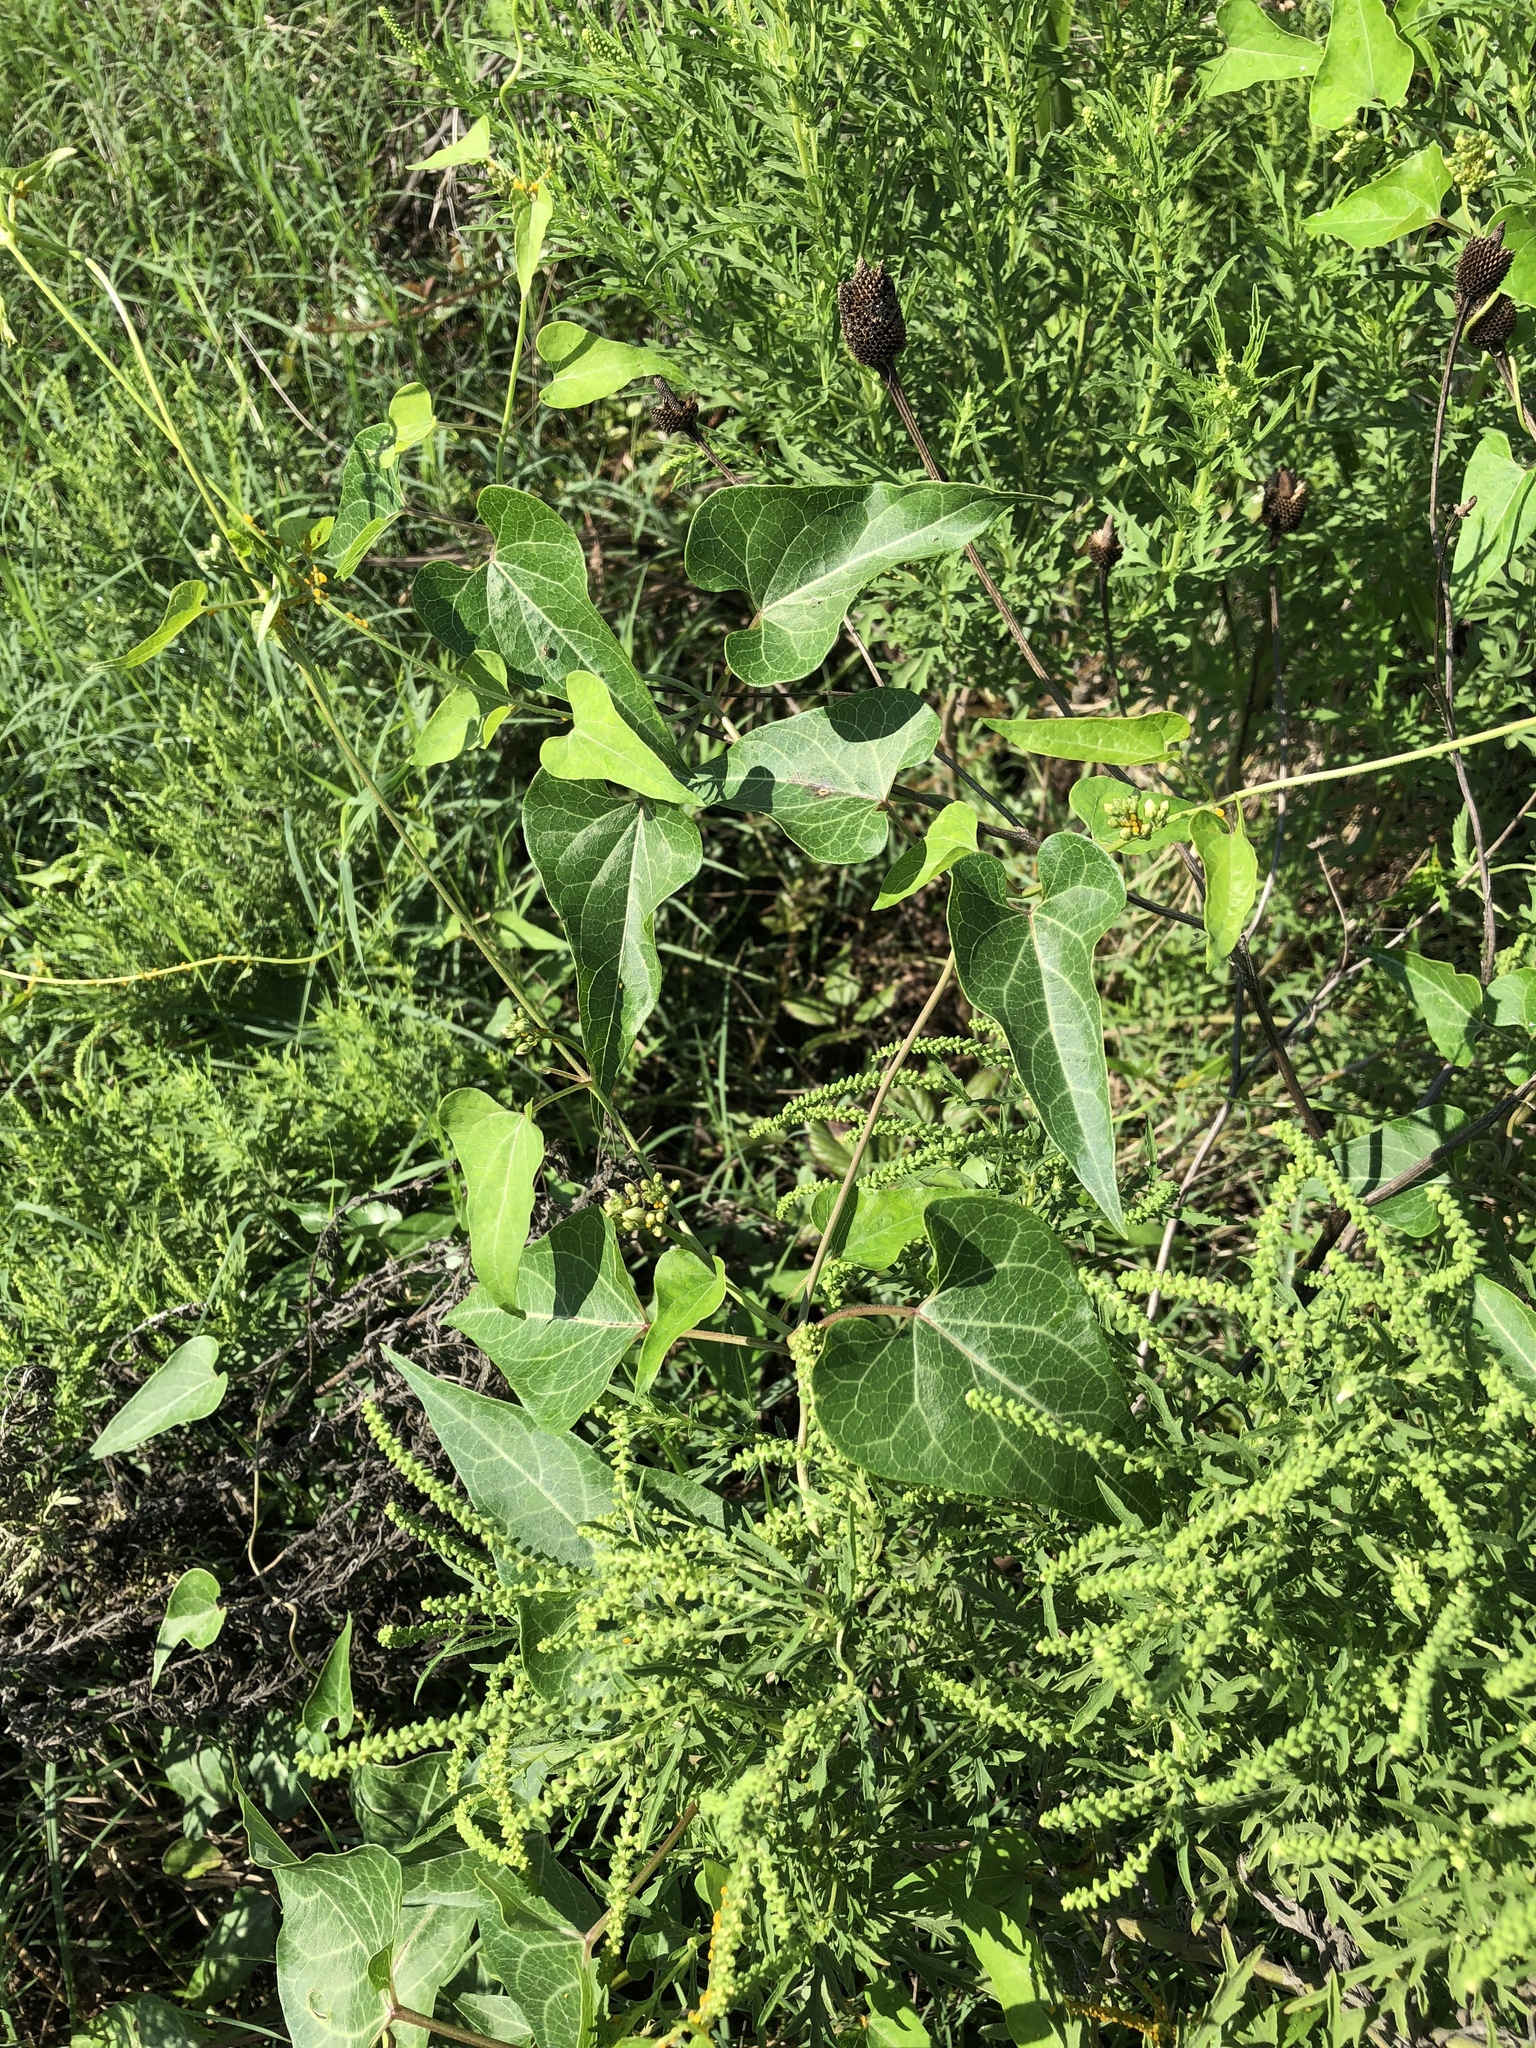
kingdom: Plantae
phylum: Tracheophyta
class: Magnoliopsida
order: Gentianales
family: Apocynaceae
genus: Cynanchum
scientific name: Cynanchum laeve
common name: Sandvine
